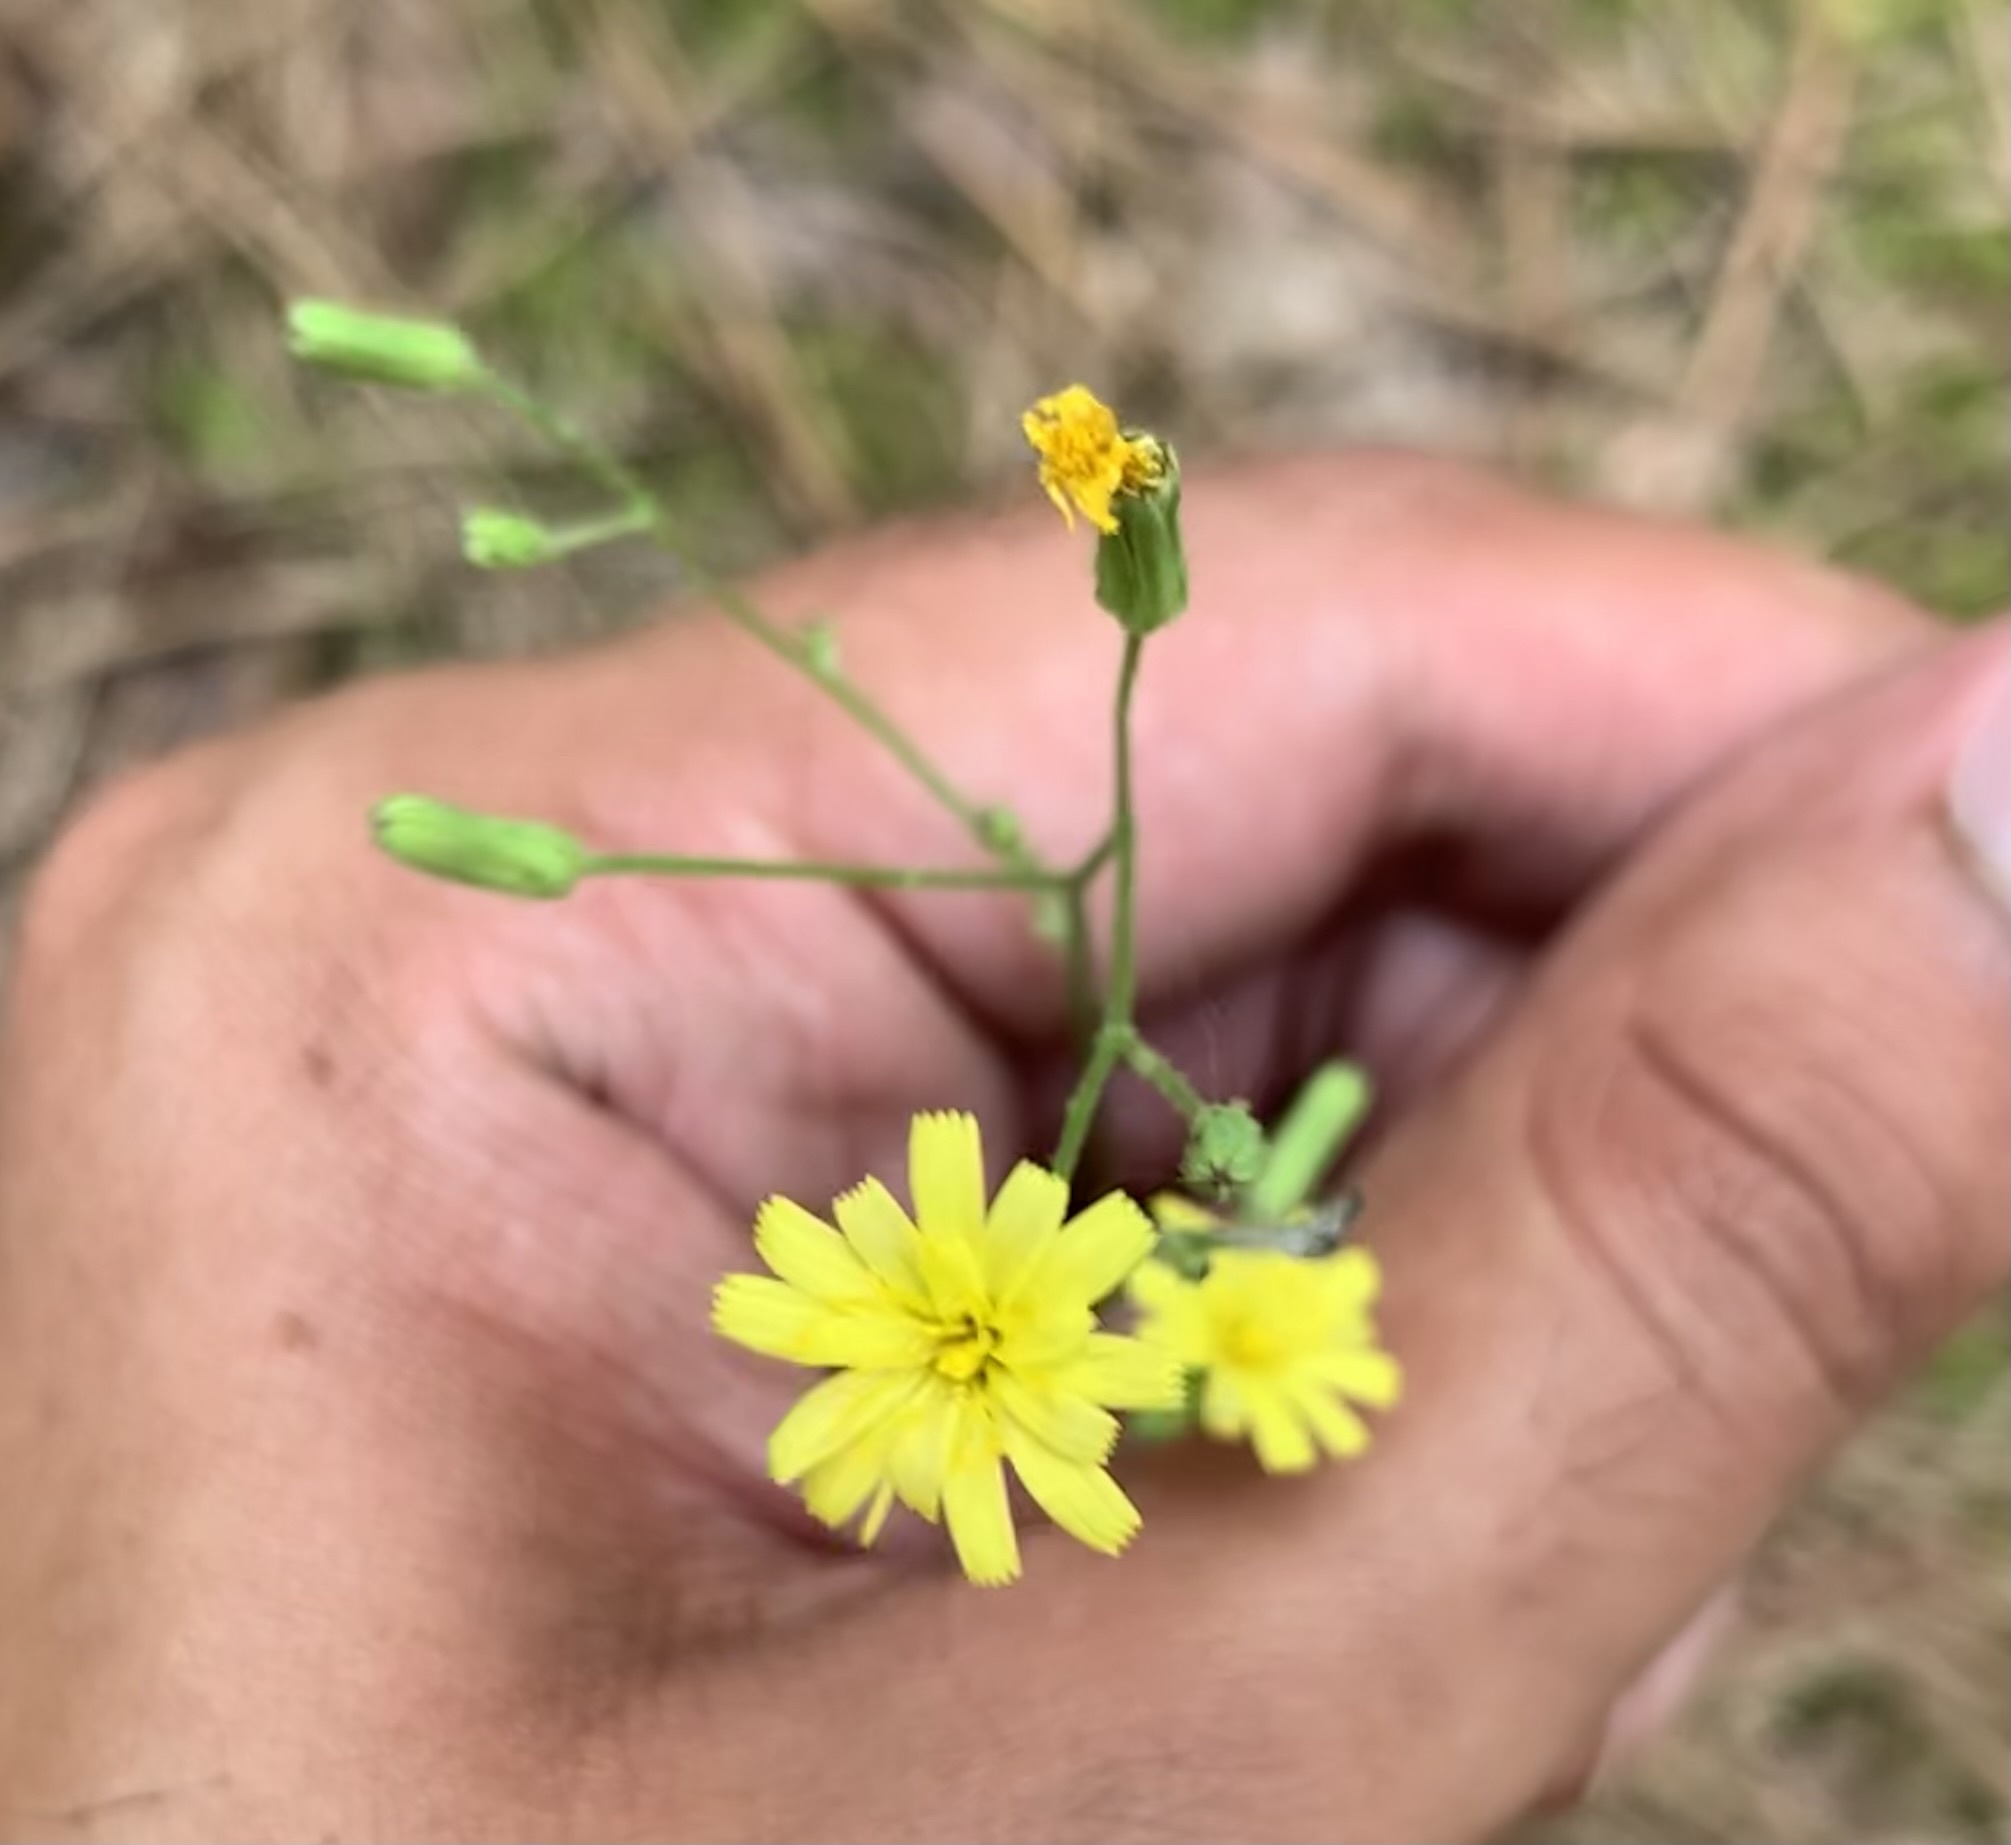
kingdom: Plantae
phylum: Tracheophyta
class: Magnoliopsida
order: Asterales
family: Asteraceae
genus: Hieracium
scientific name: Hieracium gronovii
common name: Beaked hawkweed
